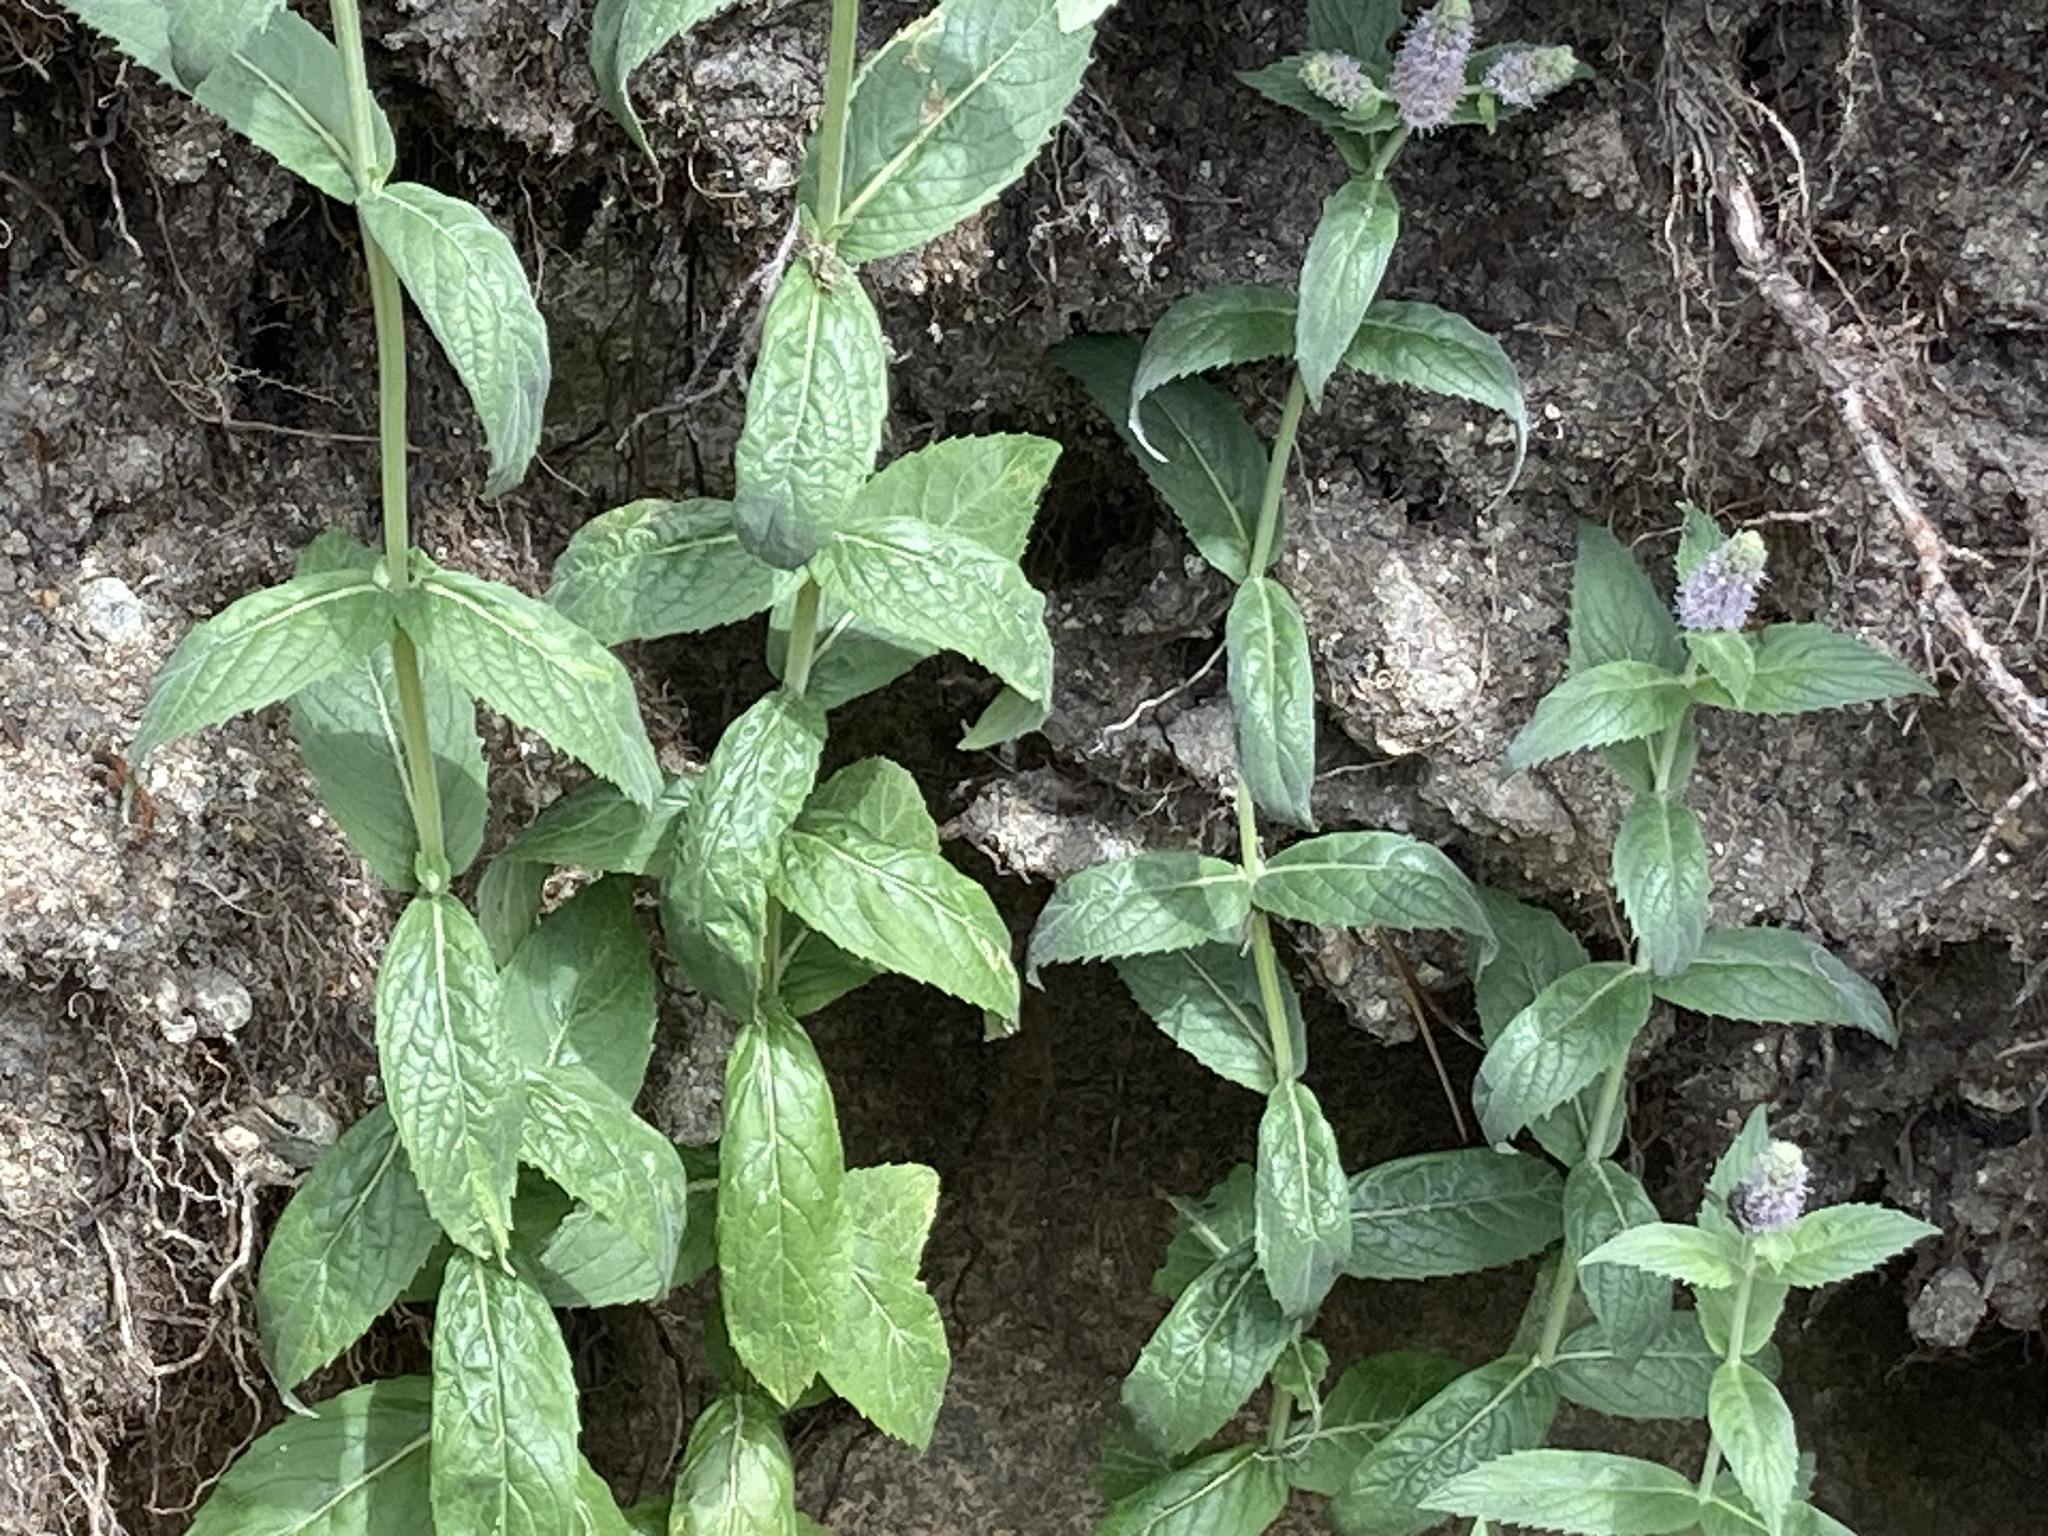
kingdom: Plantae
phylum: Tracheophyta
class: Magnoliopsida
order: Lamiales
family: Lamiaceae
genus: Mentha
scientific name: Mentha longifolia
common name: Horse mint
